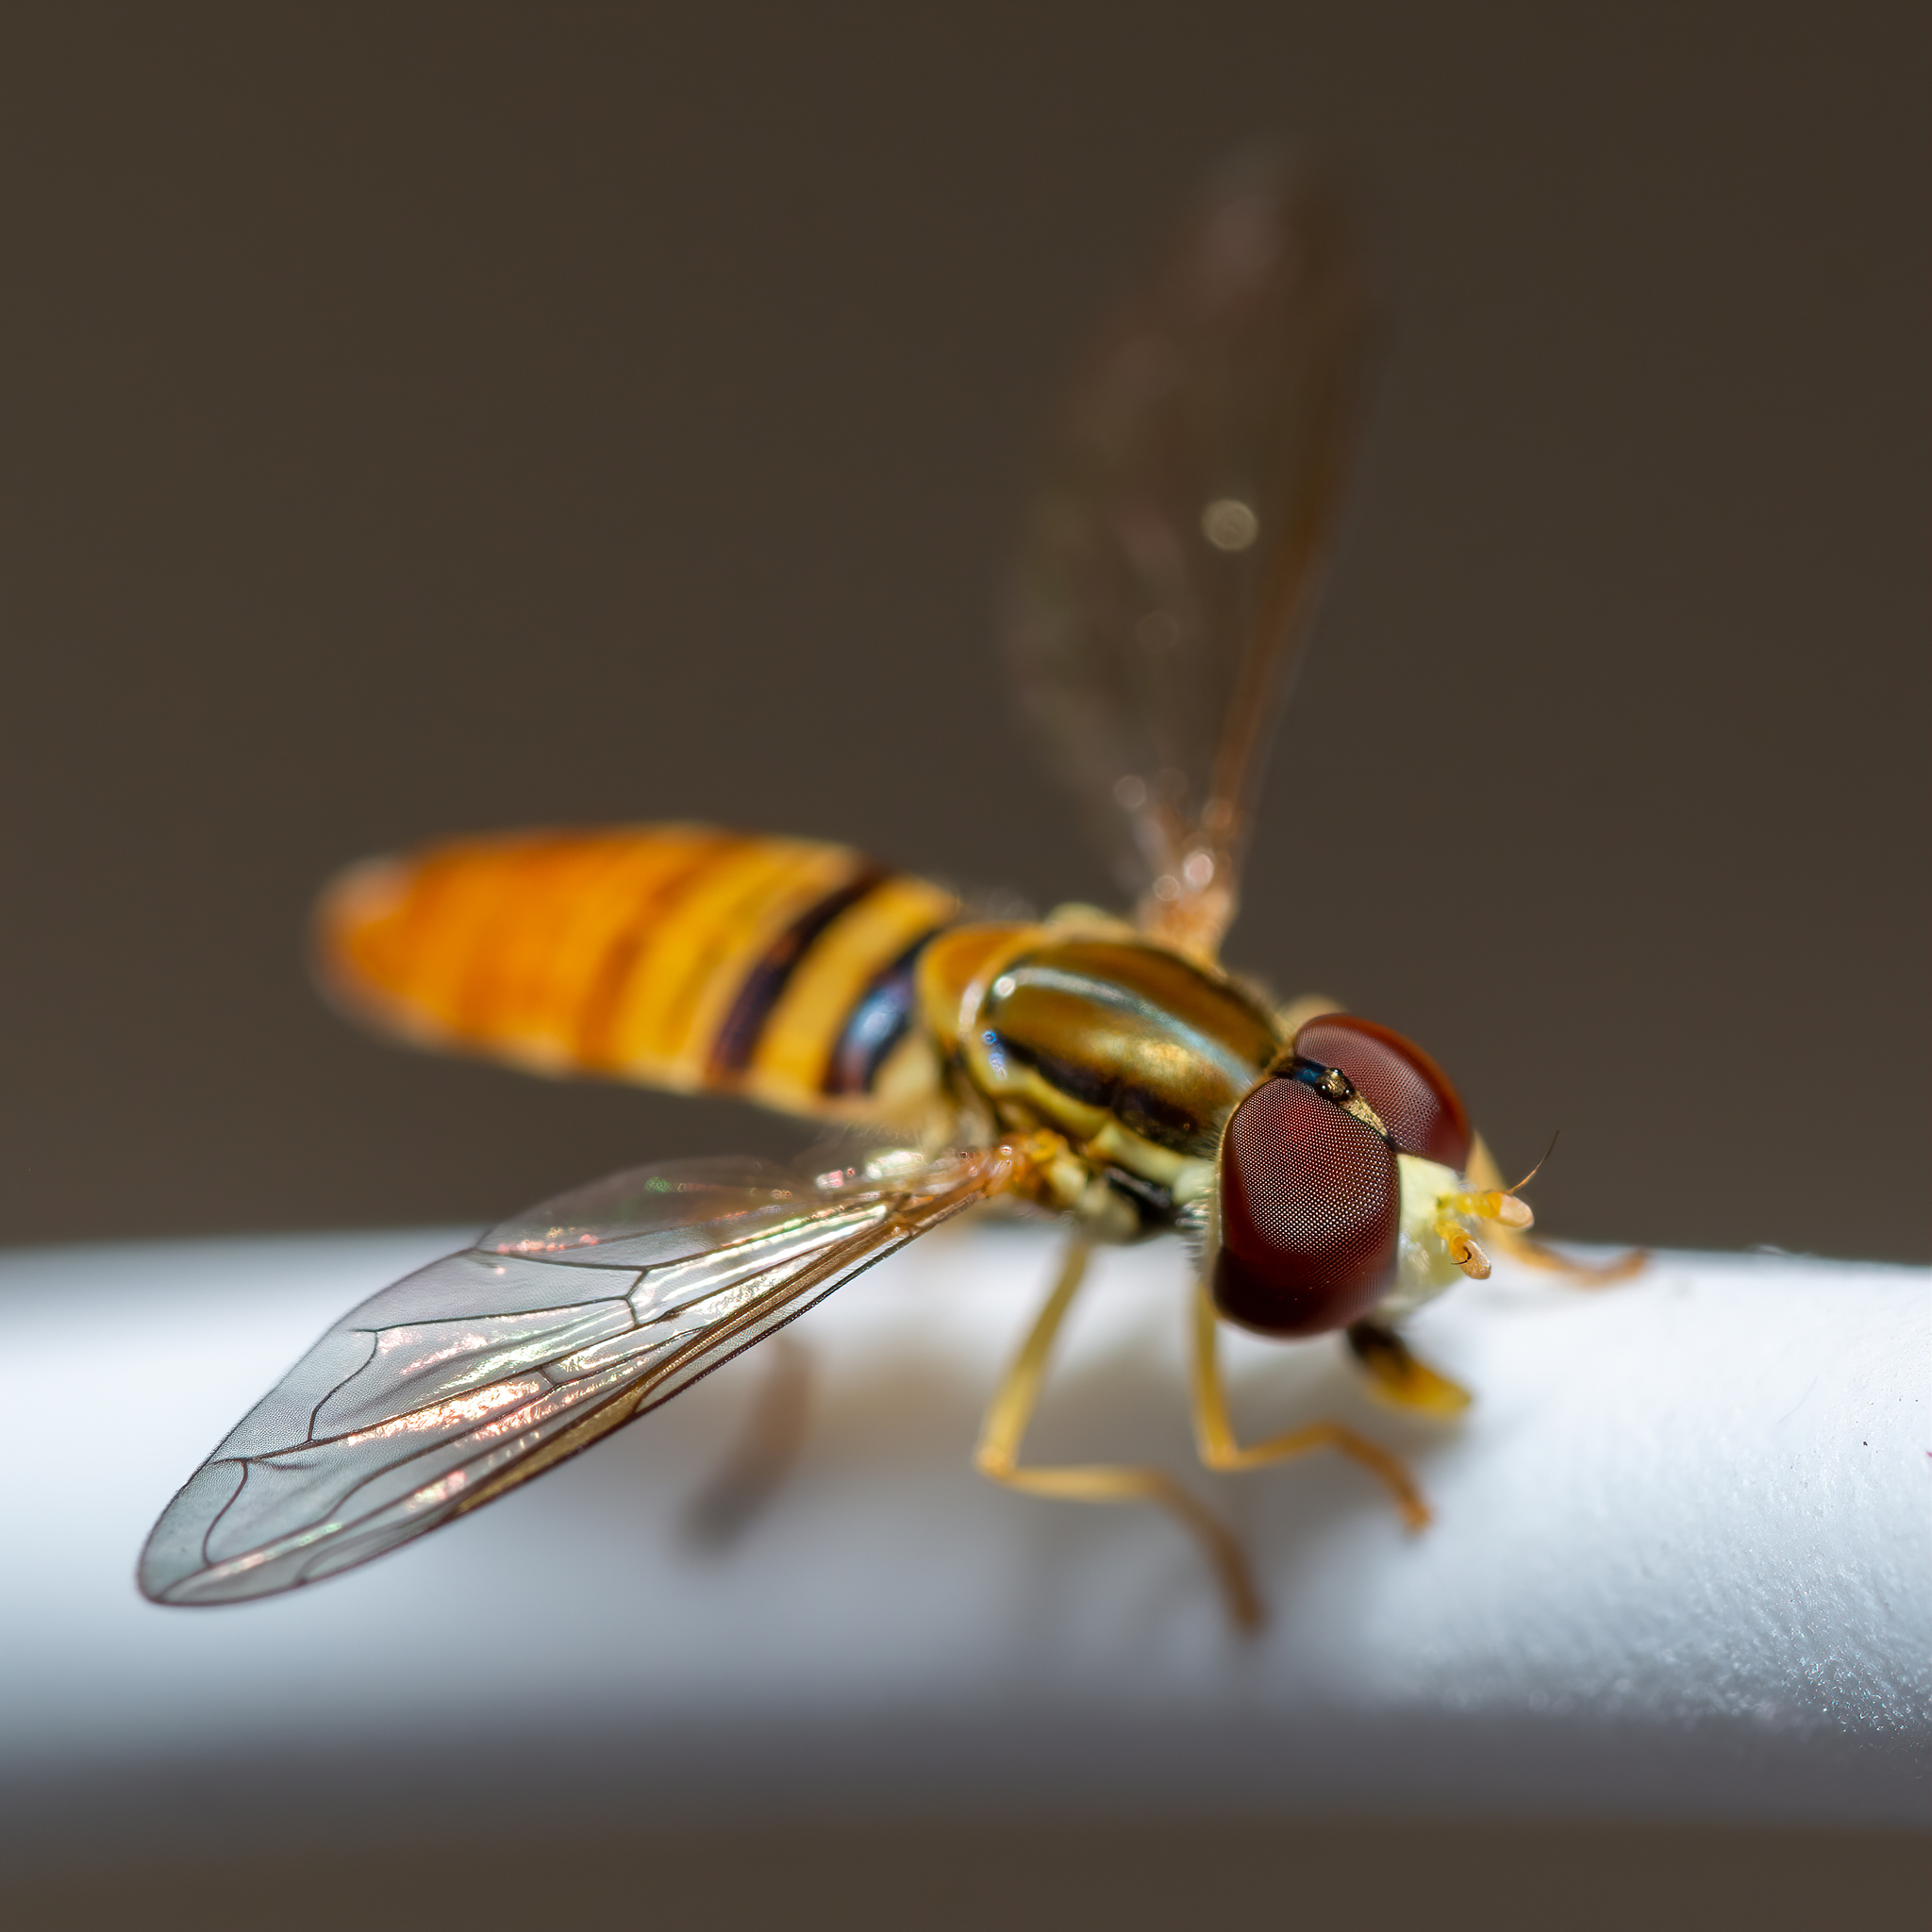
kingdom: Animalia
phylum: Arthropoda
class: Insecta
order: Diptera
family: Syrphidae
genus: Toxomerus
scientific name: Toxomerus politus
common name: Maize calligrapher
